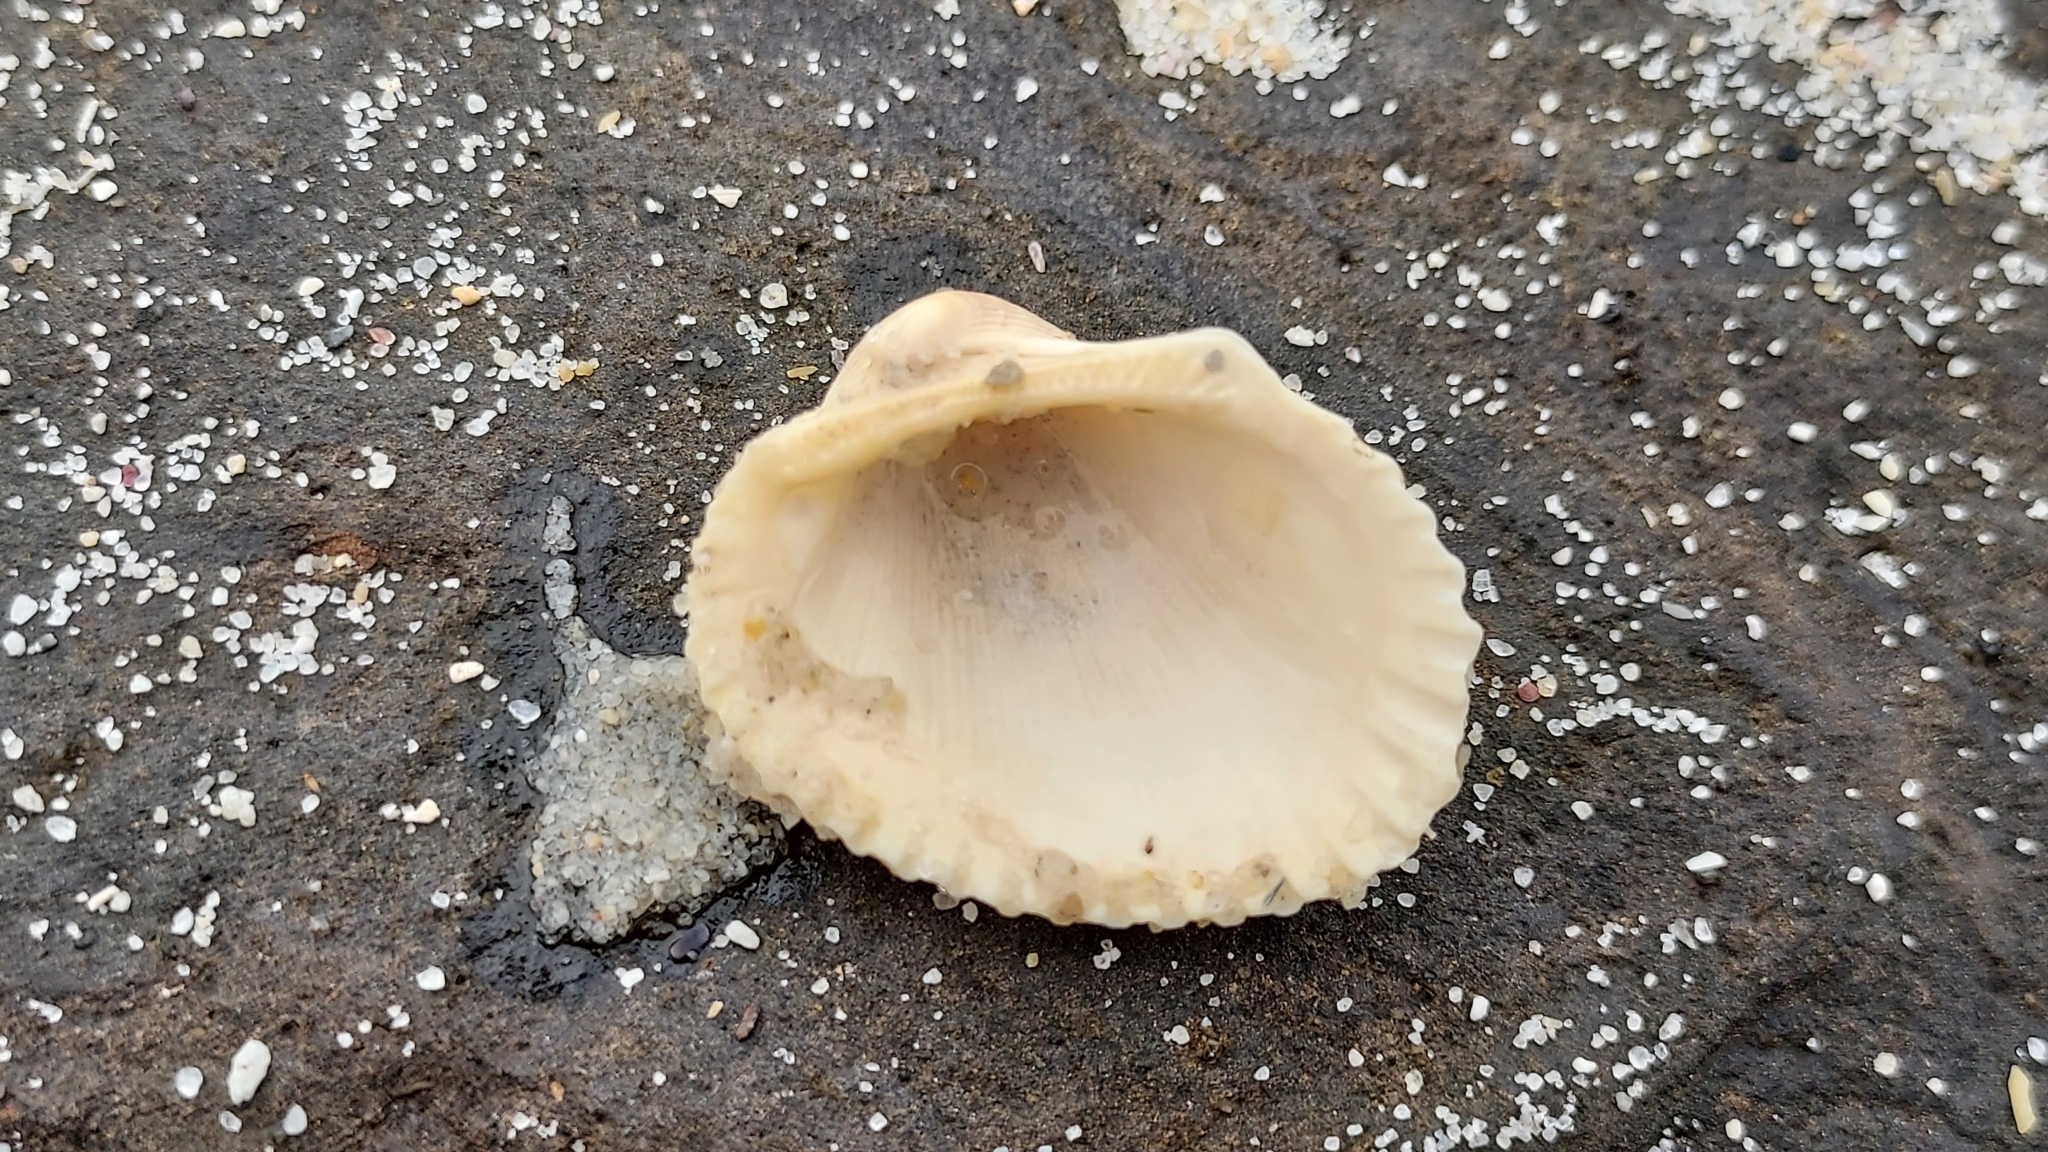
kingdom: Animalia
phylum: Mollusca
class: Bivalvia
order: Arcida
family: Arcidae
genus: Anadara
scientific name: Anadara trapezia
